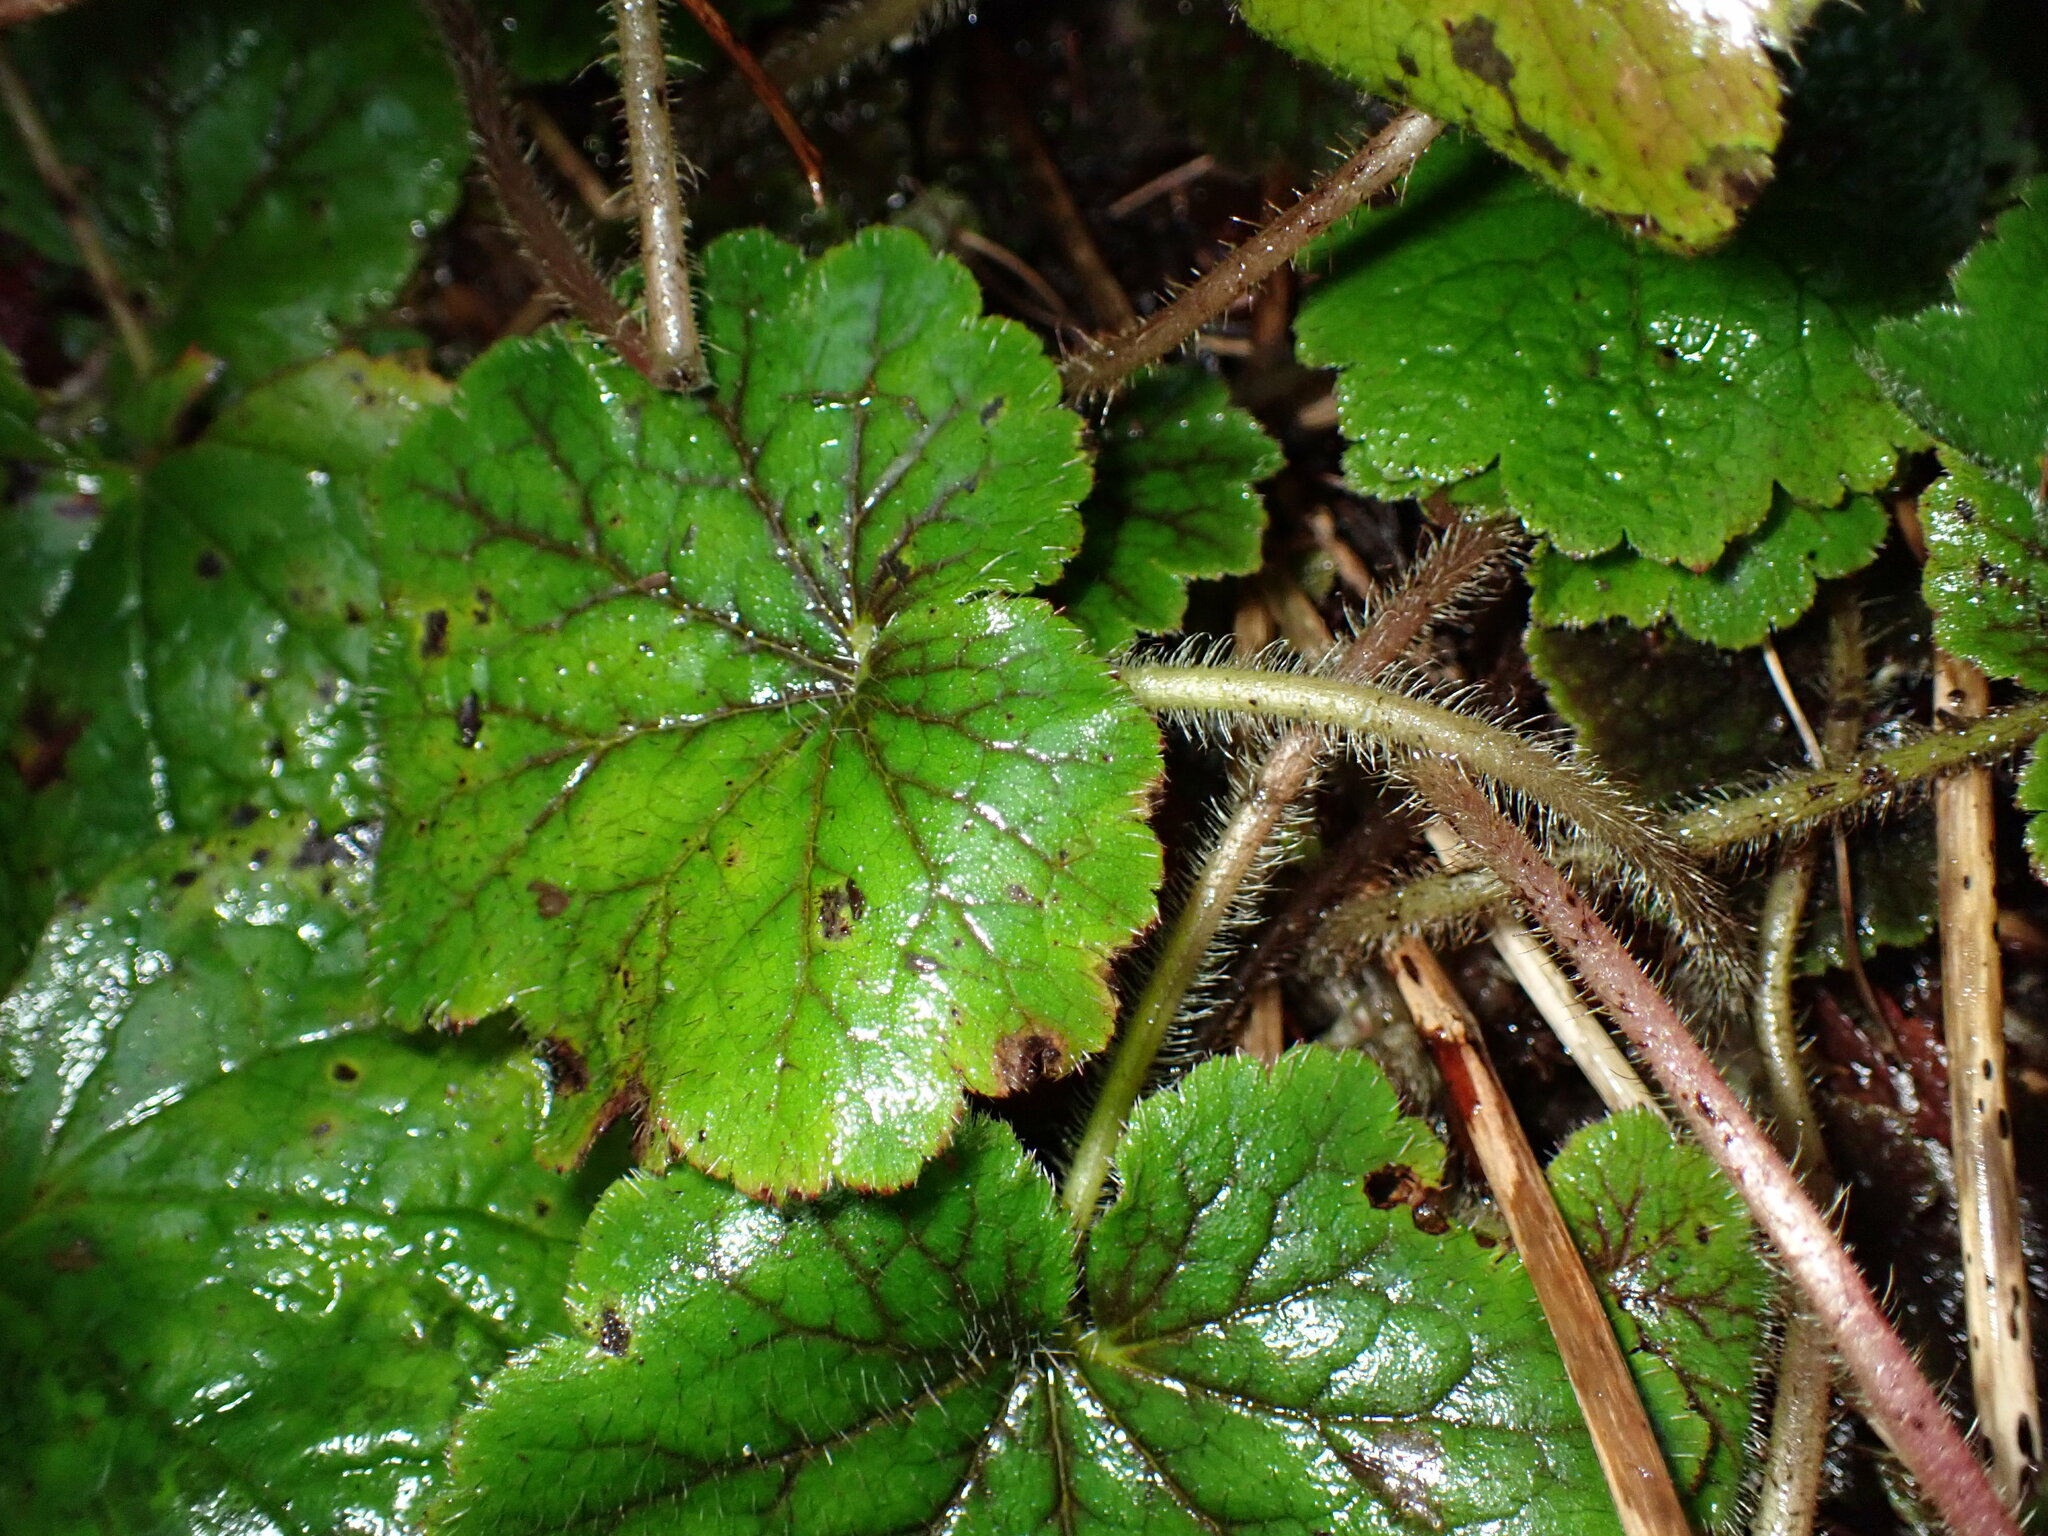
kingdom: Plantae
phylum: Tracheophyta
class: Magnoliopsida
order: Saxifragales
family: Saxifragaceae
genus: Tellima
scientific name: Tellima grandiflora
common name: Fringecups
